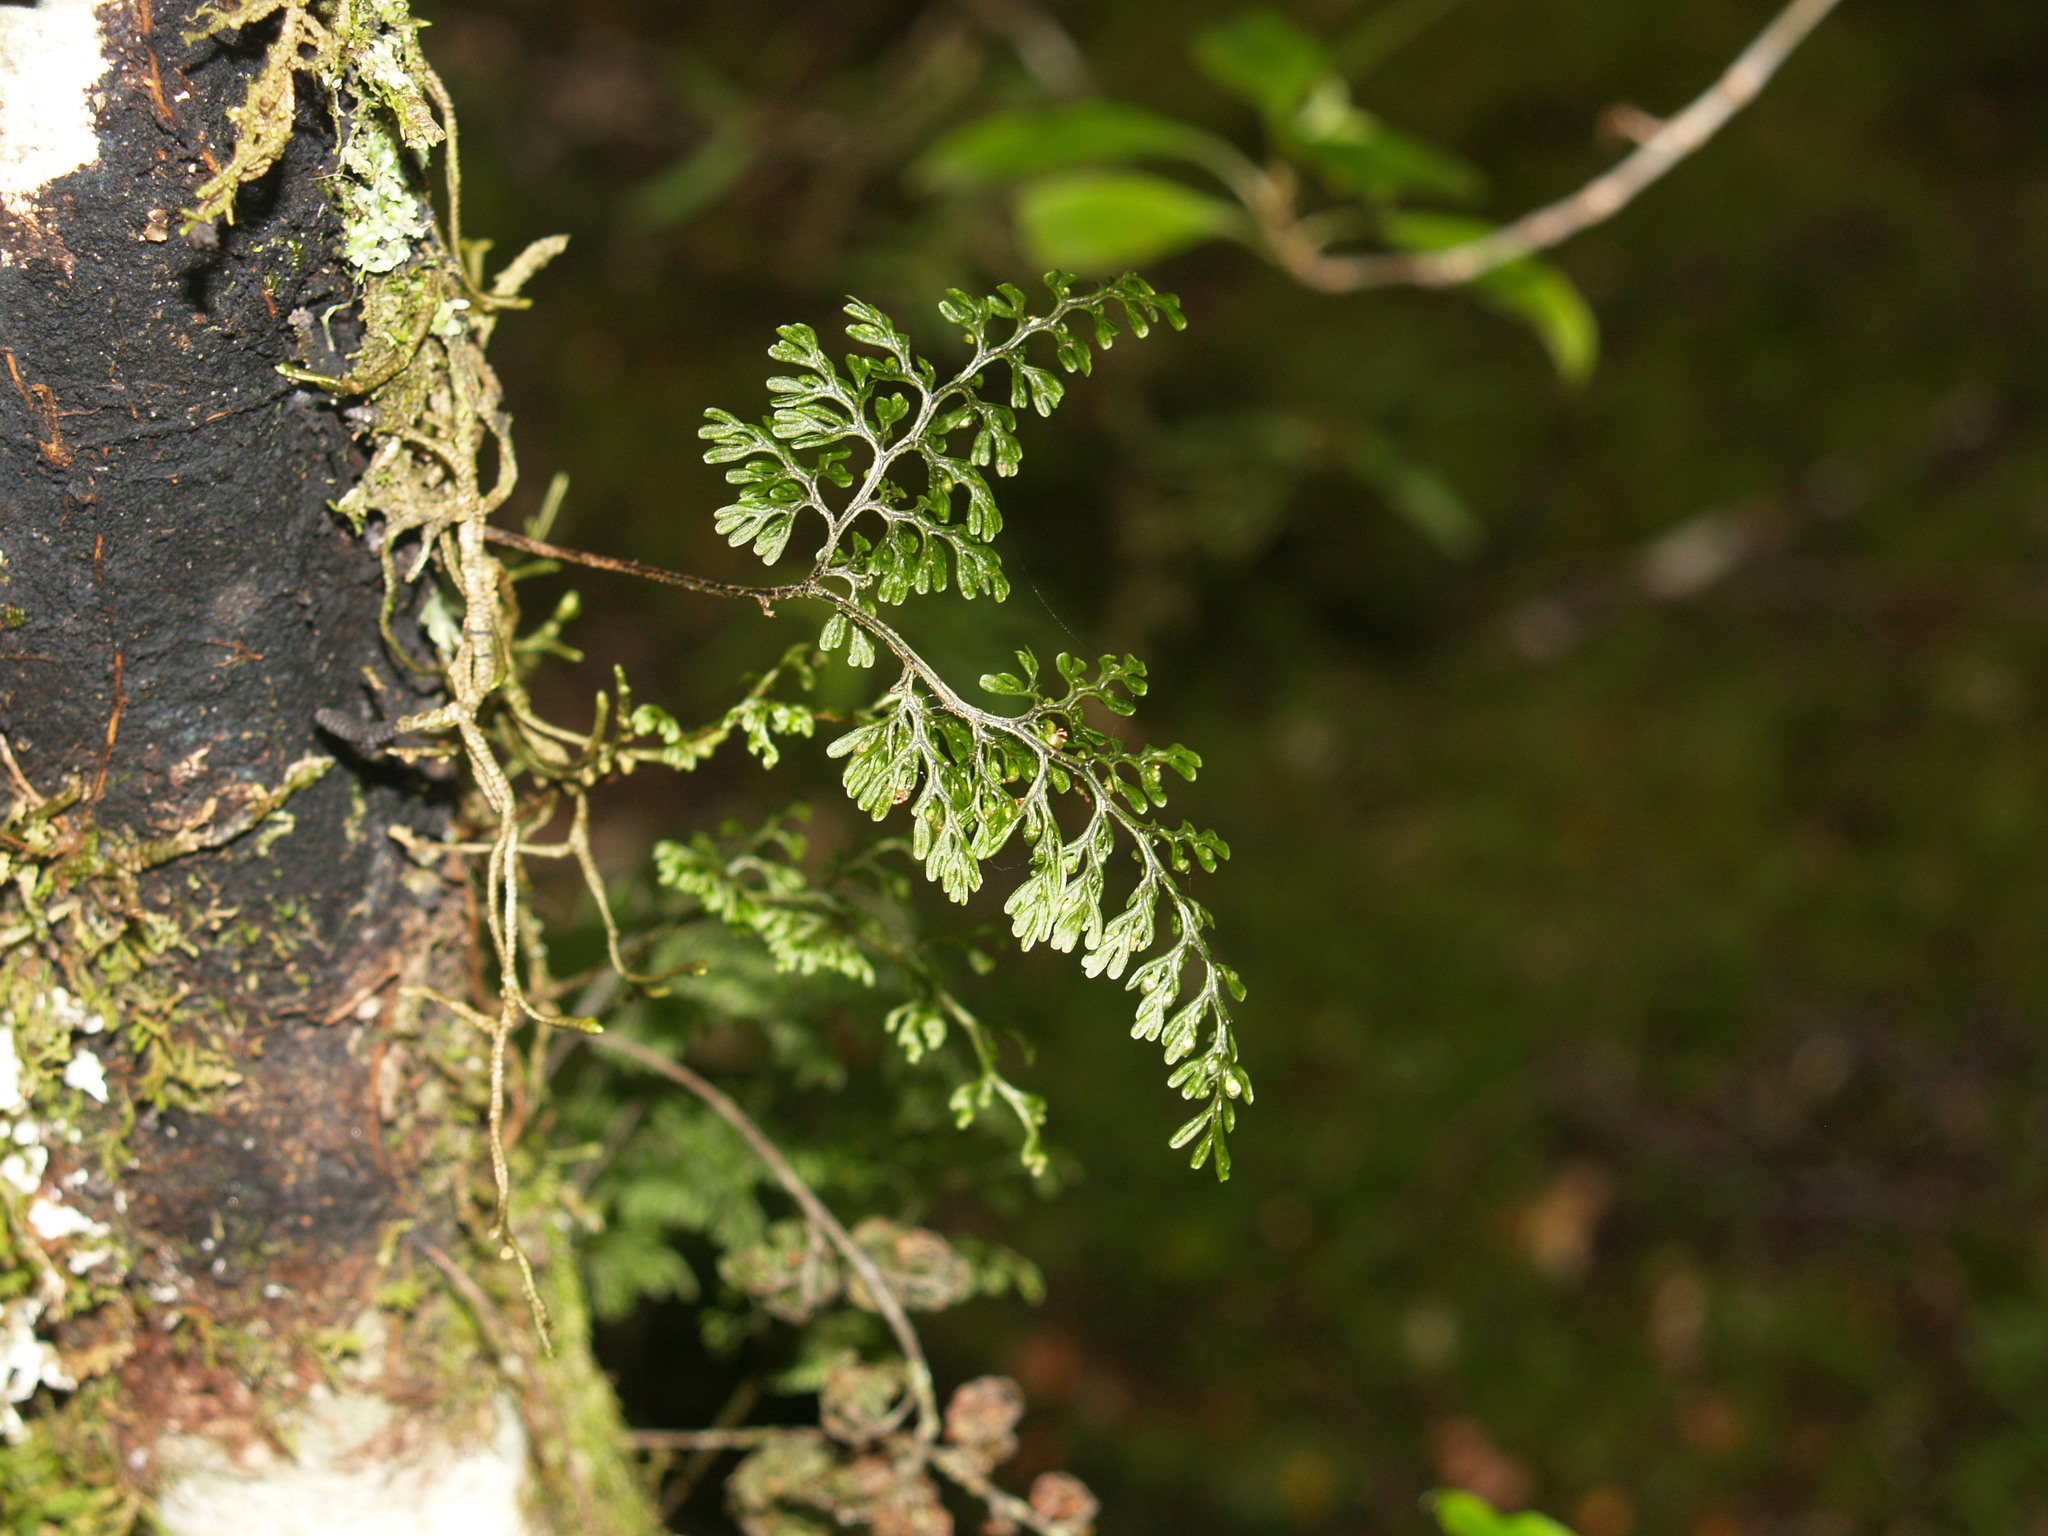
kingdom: Plantae
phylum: Tracheophyta
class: Polypodiopsida
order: Hymenophyllales
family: Hymenophyllaceae
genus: Hymenophyllum
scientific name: Hymenophyllum sanguinolentum
